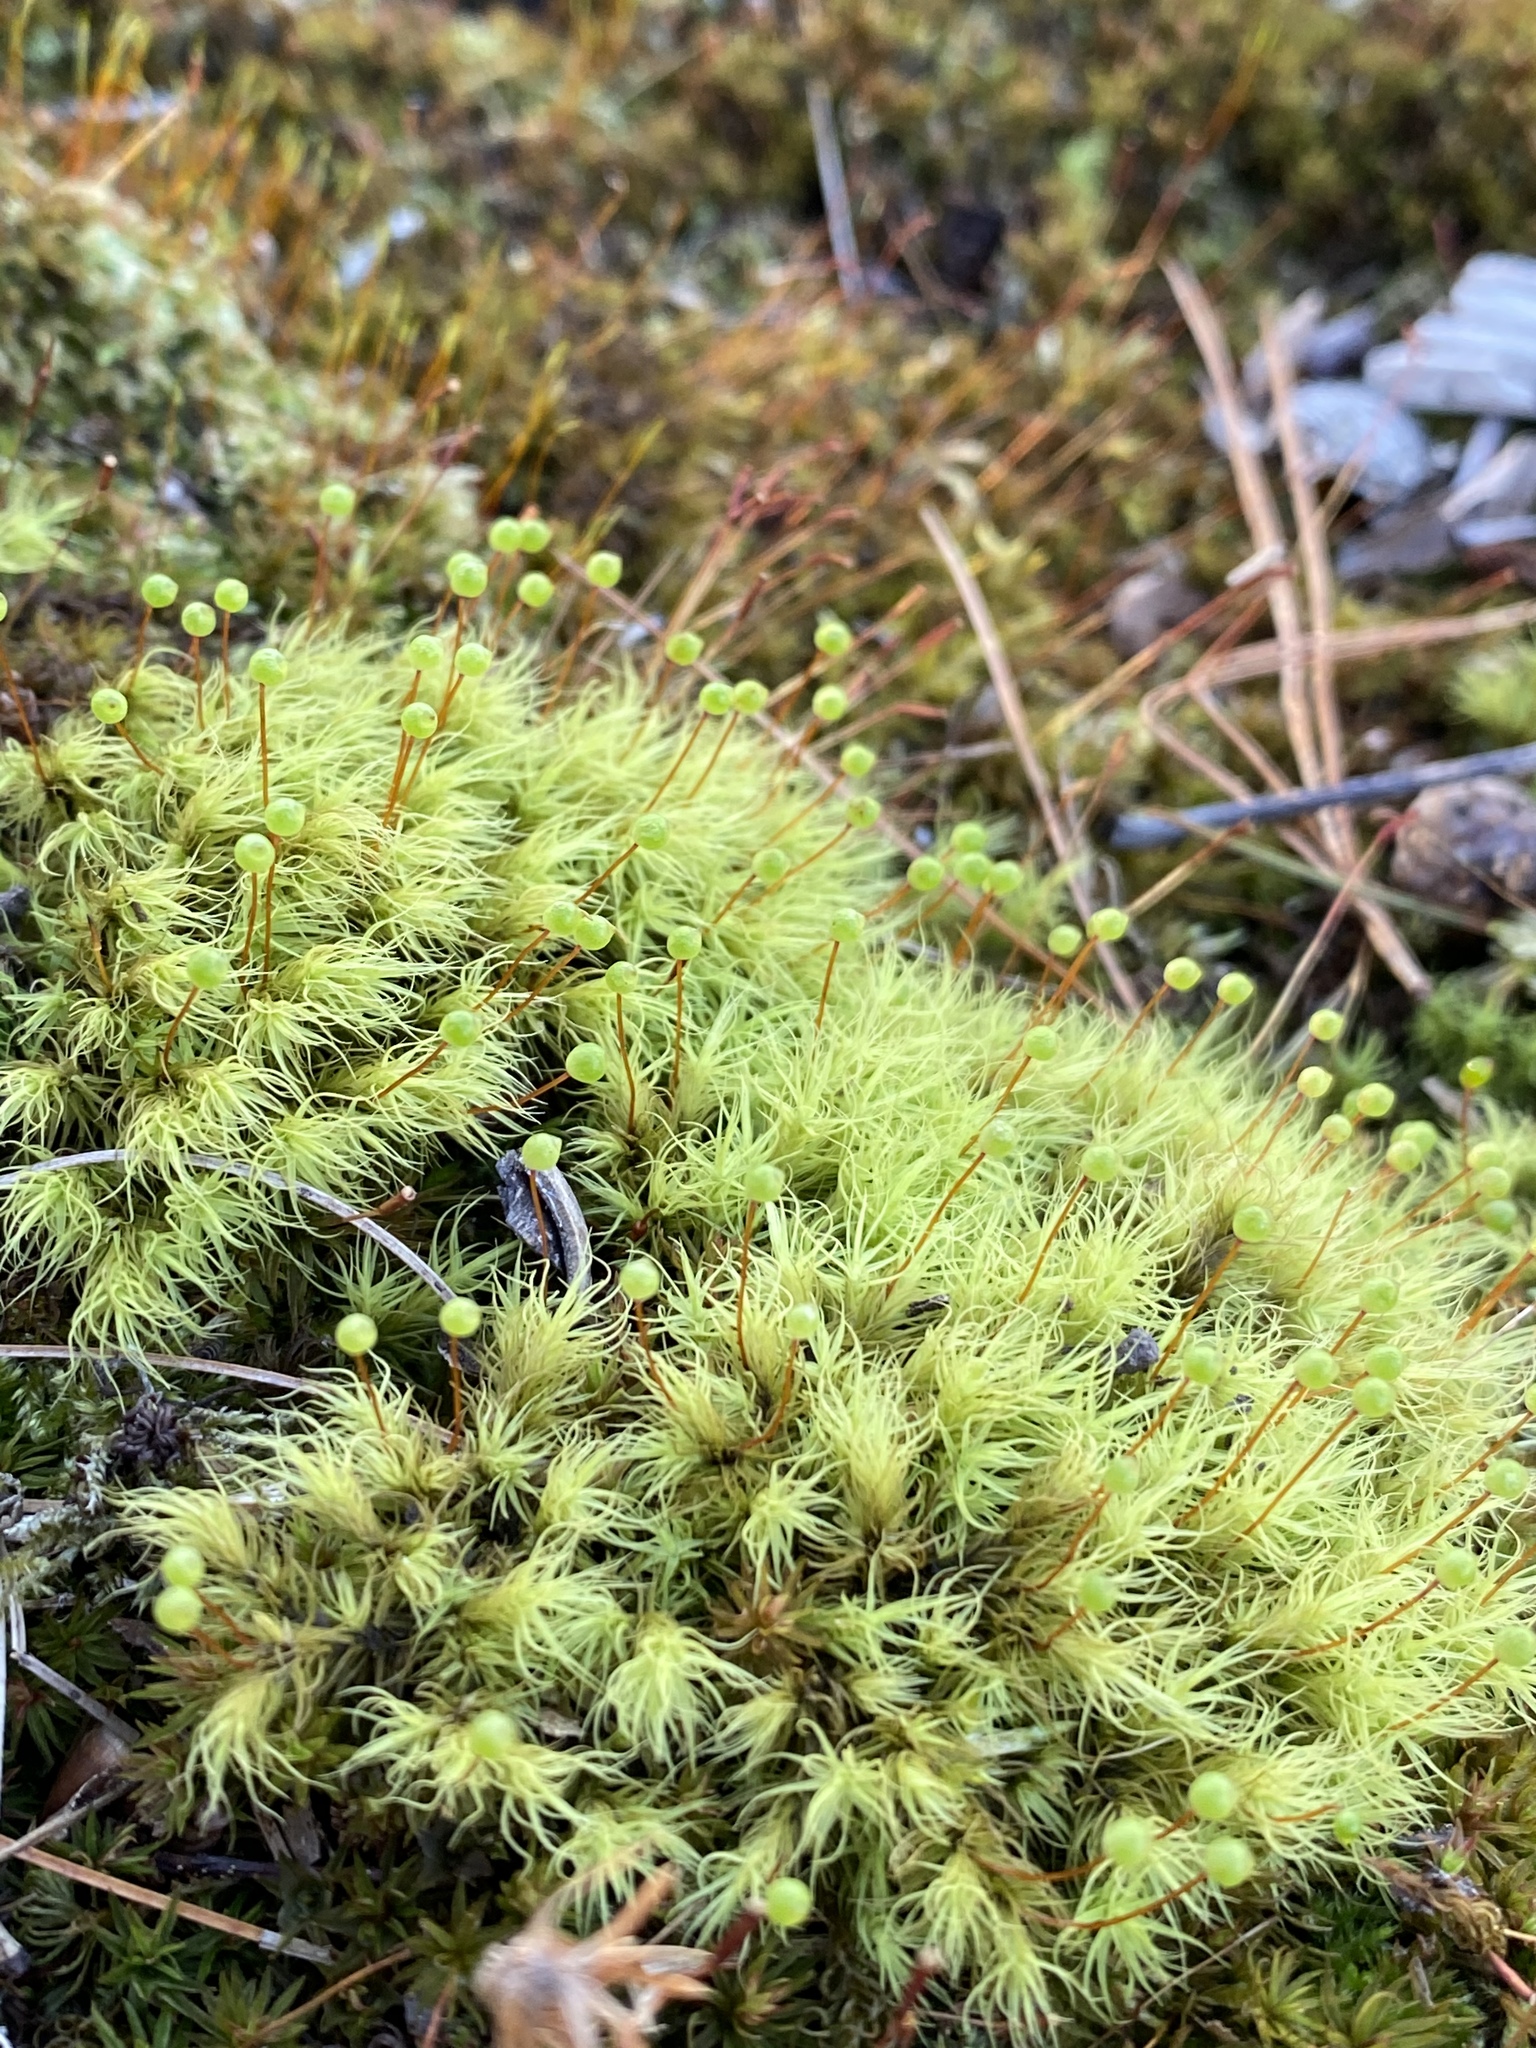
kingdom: Plantae
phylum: Bryophyta
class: Bryopsida
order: Bartramiales
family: Bartramiaceae
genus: Bartramia
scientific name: Bartramia ithyphylla
